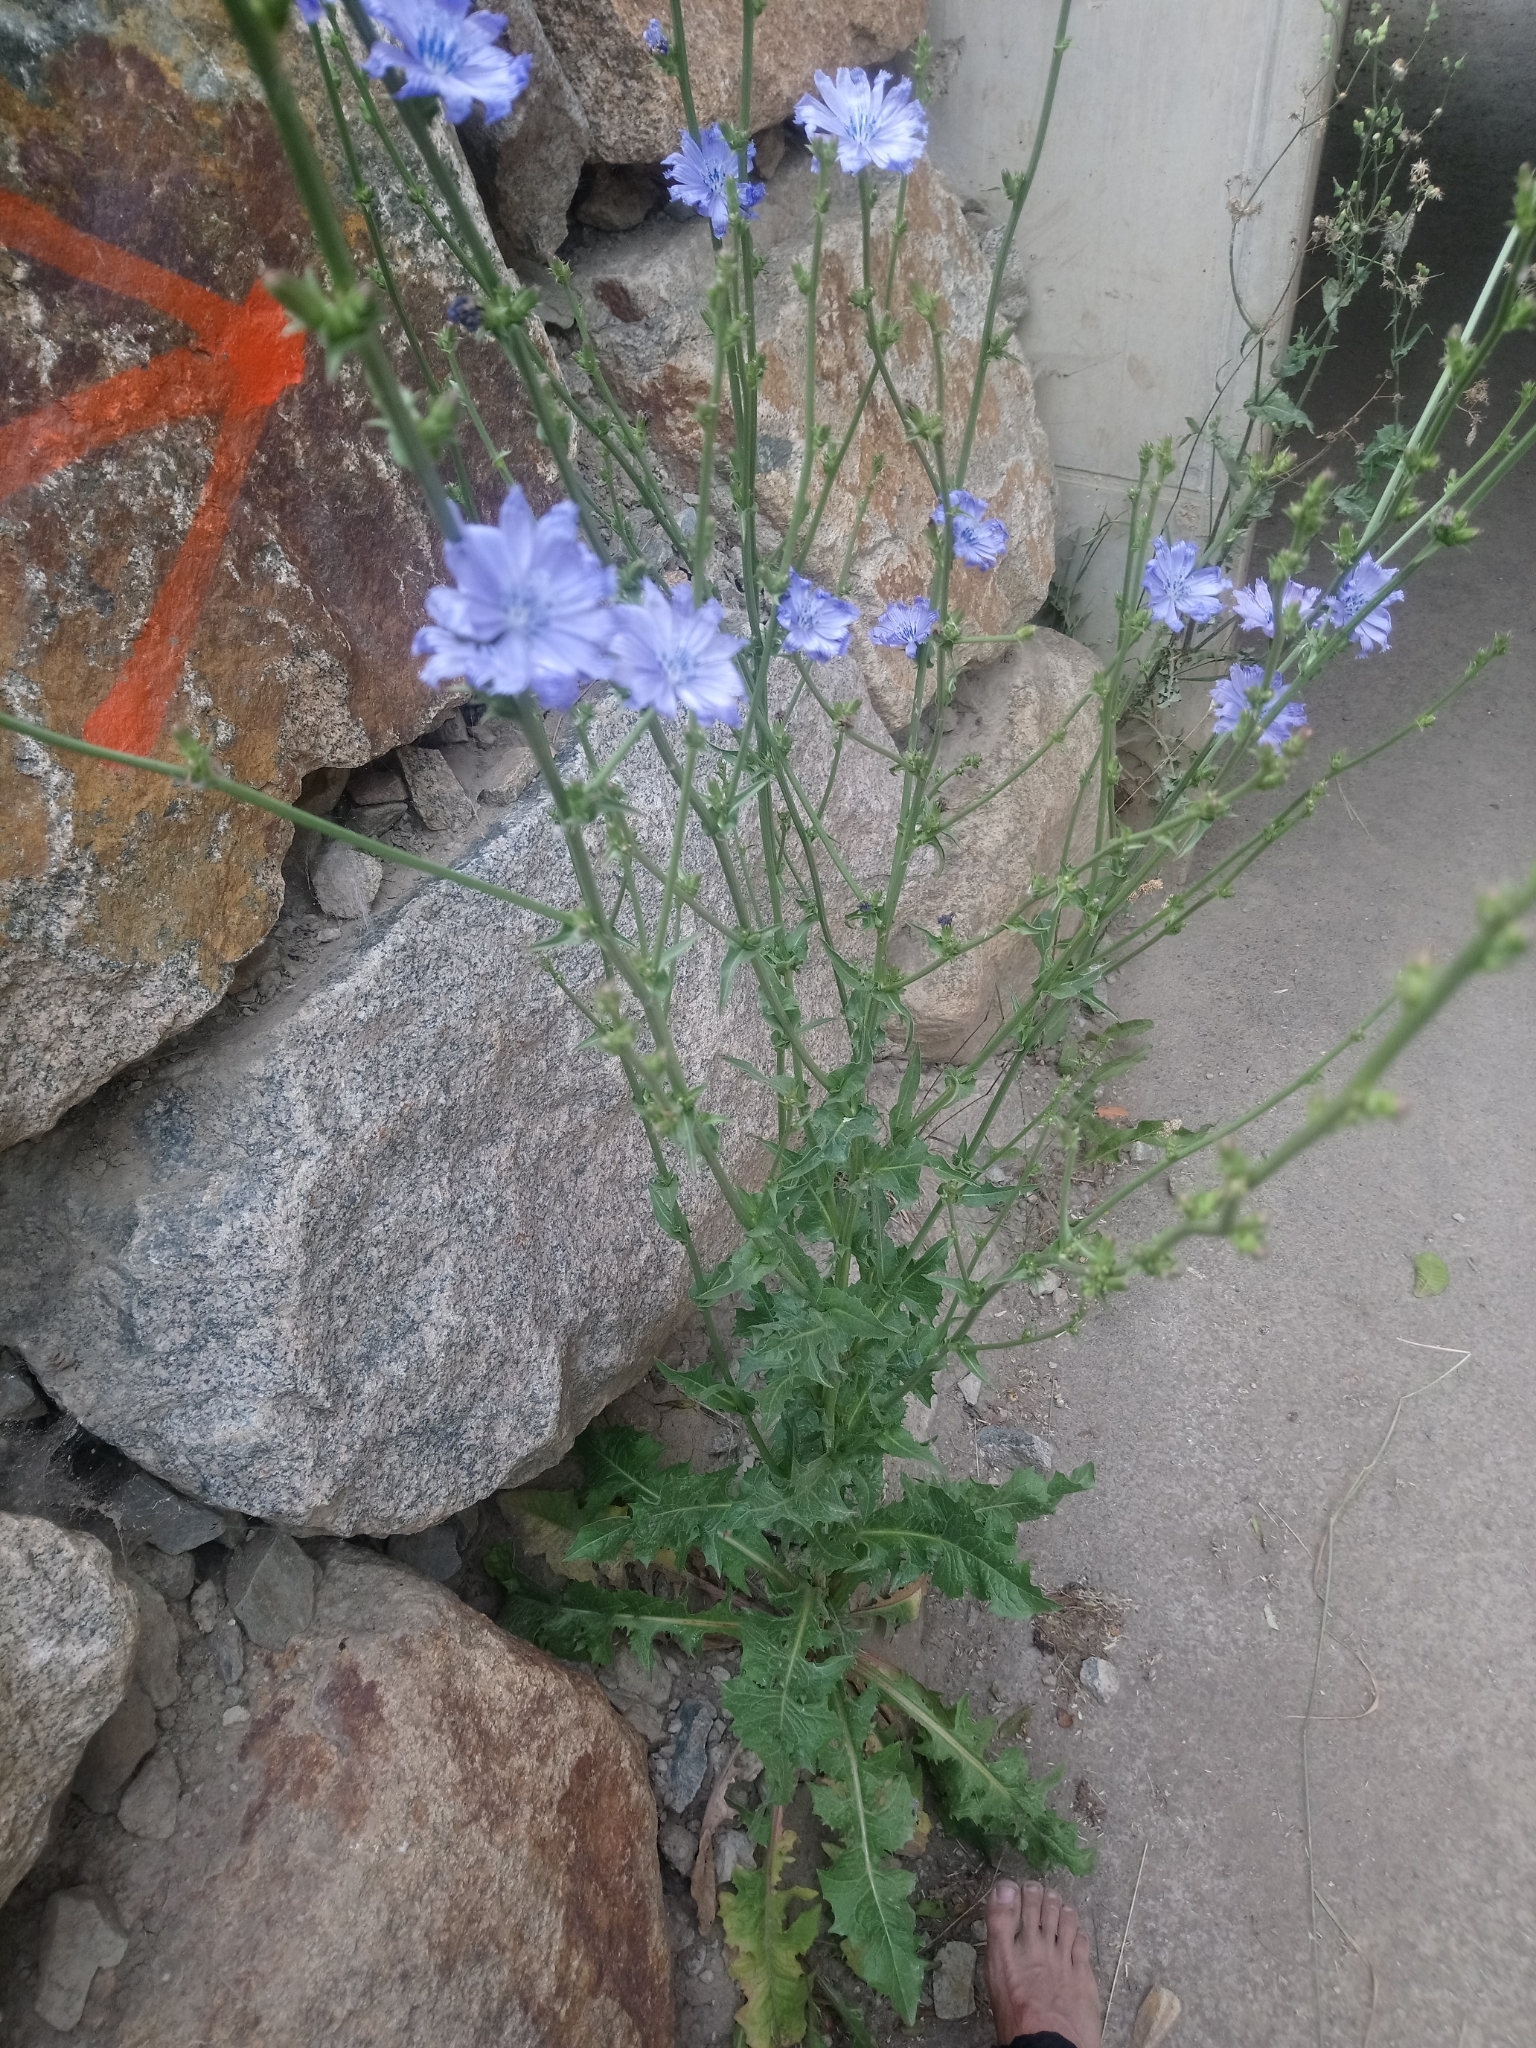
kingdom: Plantae
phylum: Tracheophyta
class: Magnoliopsida
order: Asterales
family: Asteraceae
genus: Cichorium
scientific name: Cichorium intybus
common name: Chicory
